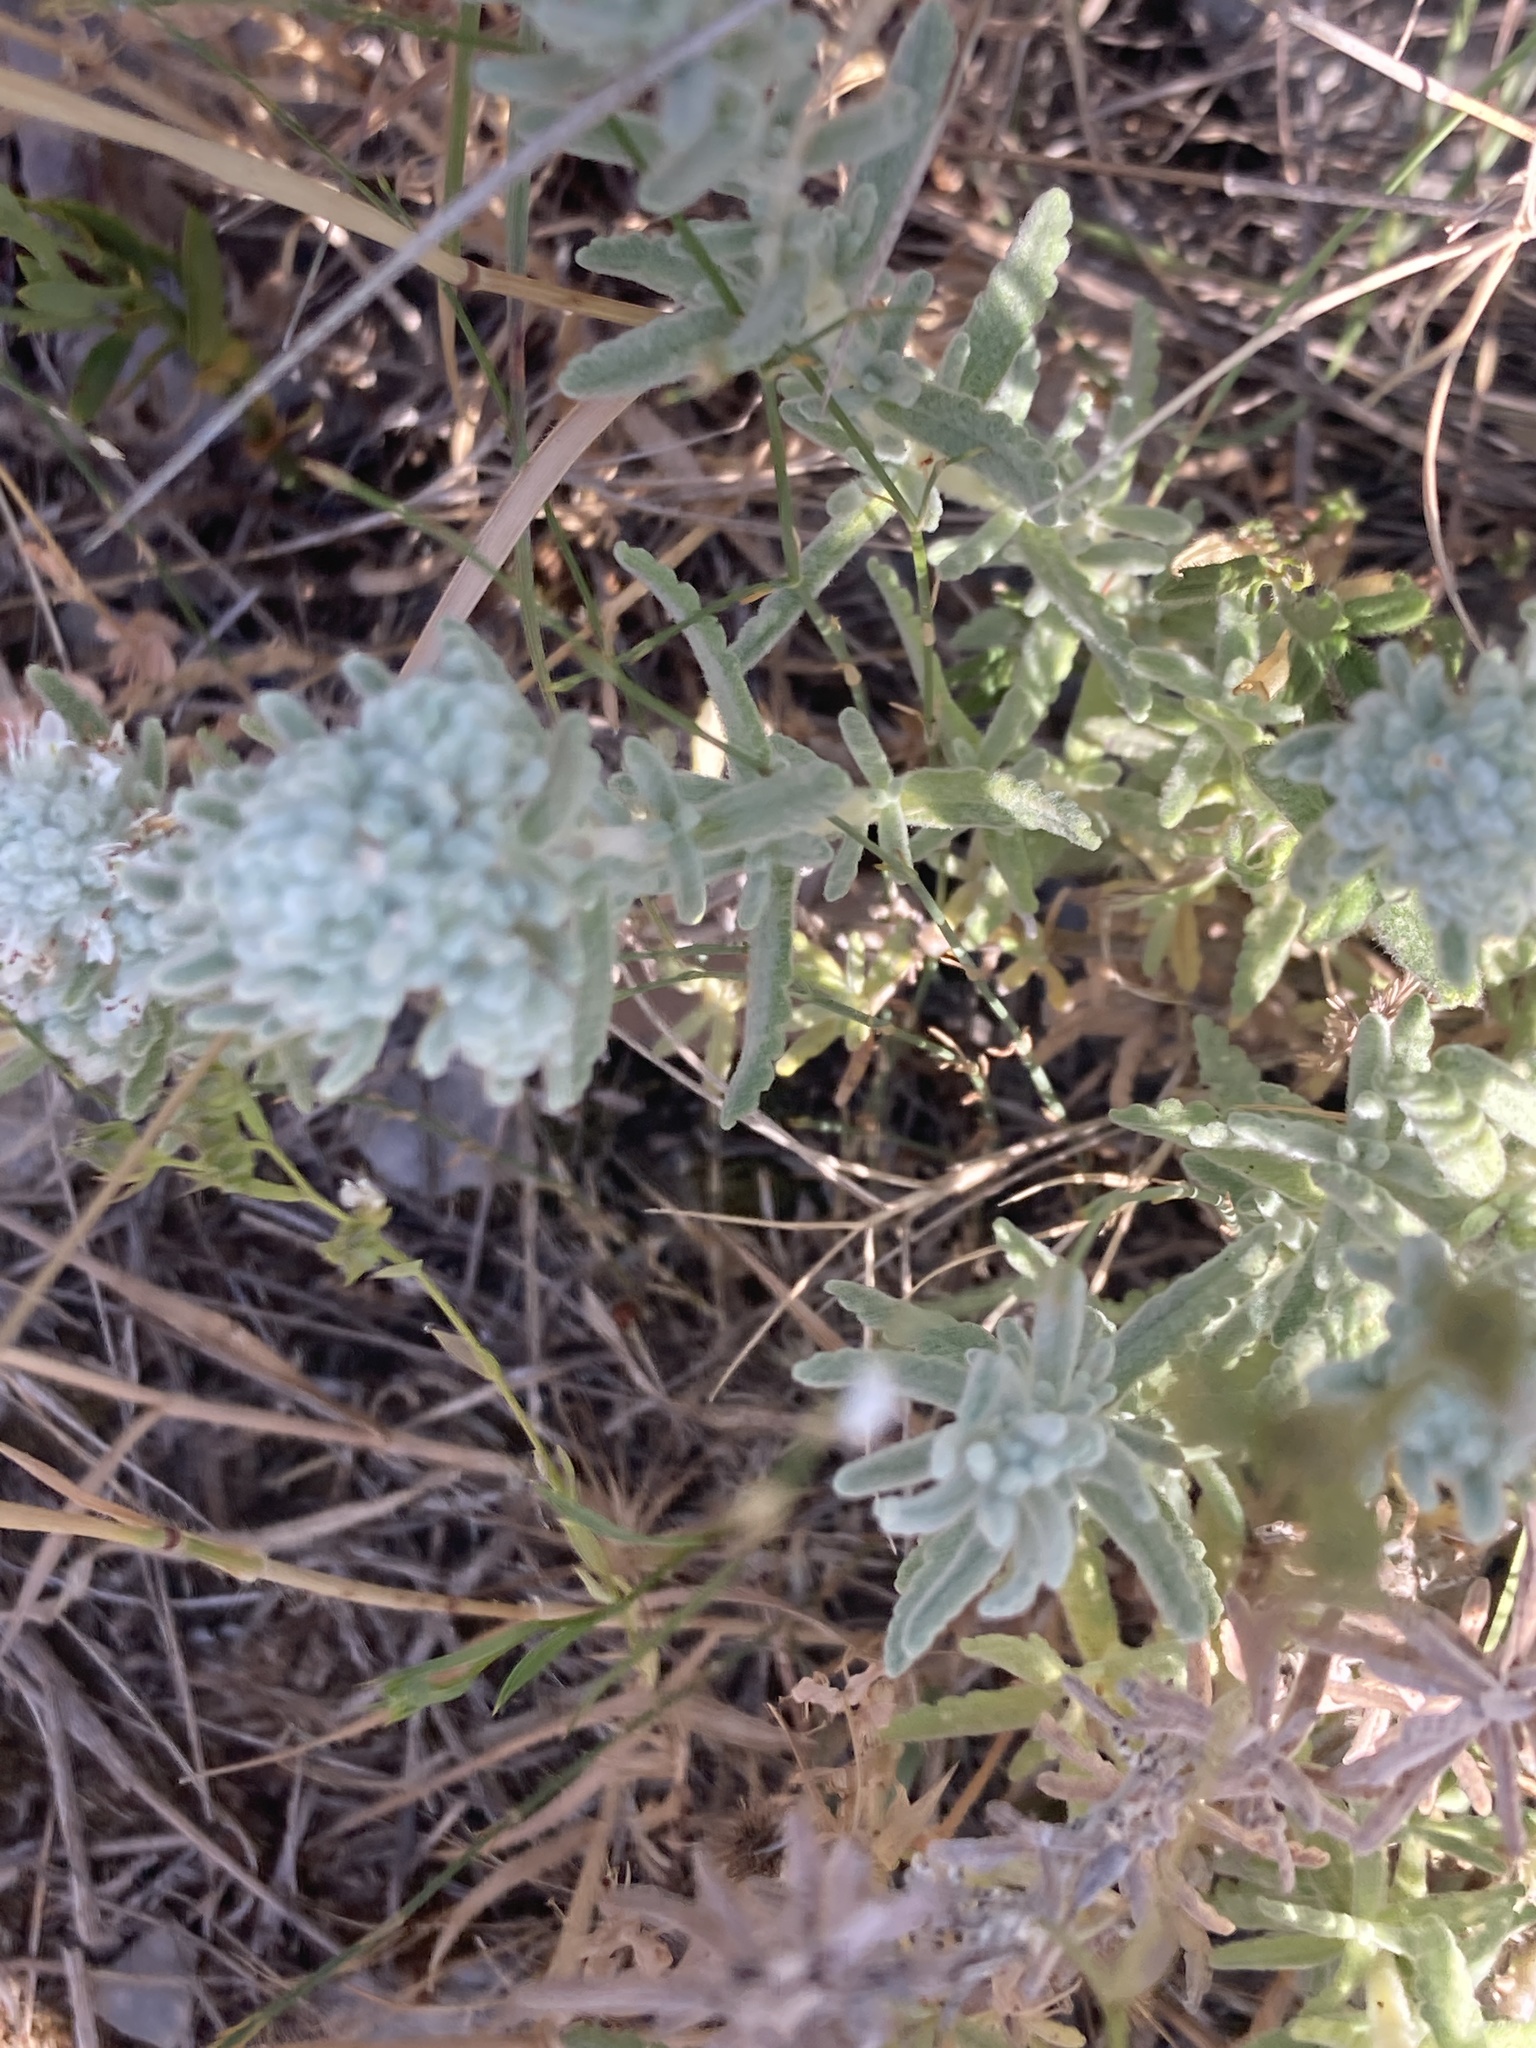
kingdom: Plantae
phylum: Tracheophyta
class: Magnoliopsida
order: Lamiales
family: Lamiaceae
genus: Teucrium
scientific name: Teucrium capitatum
